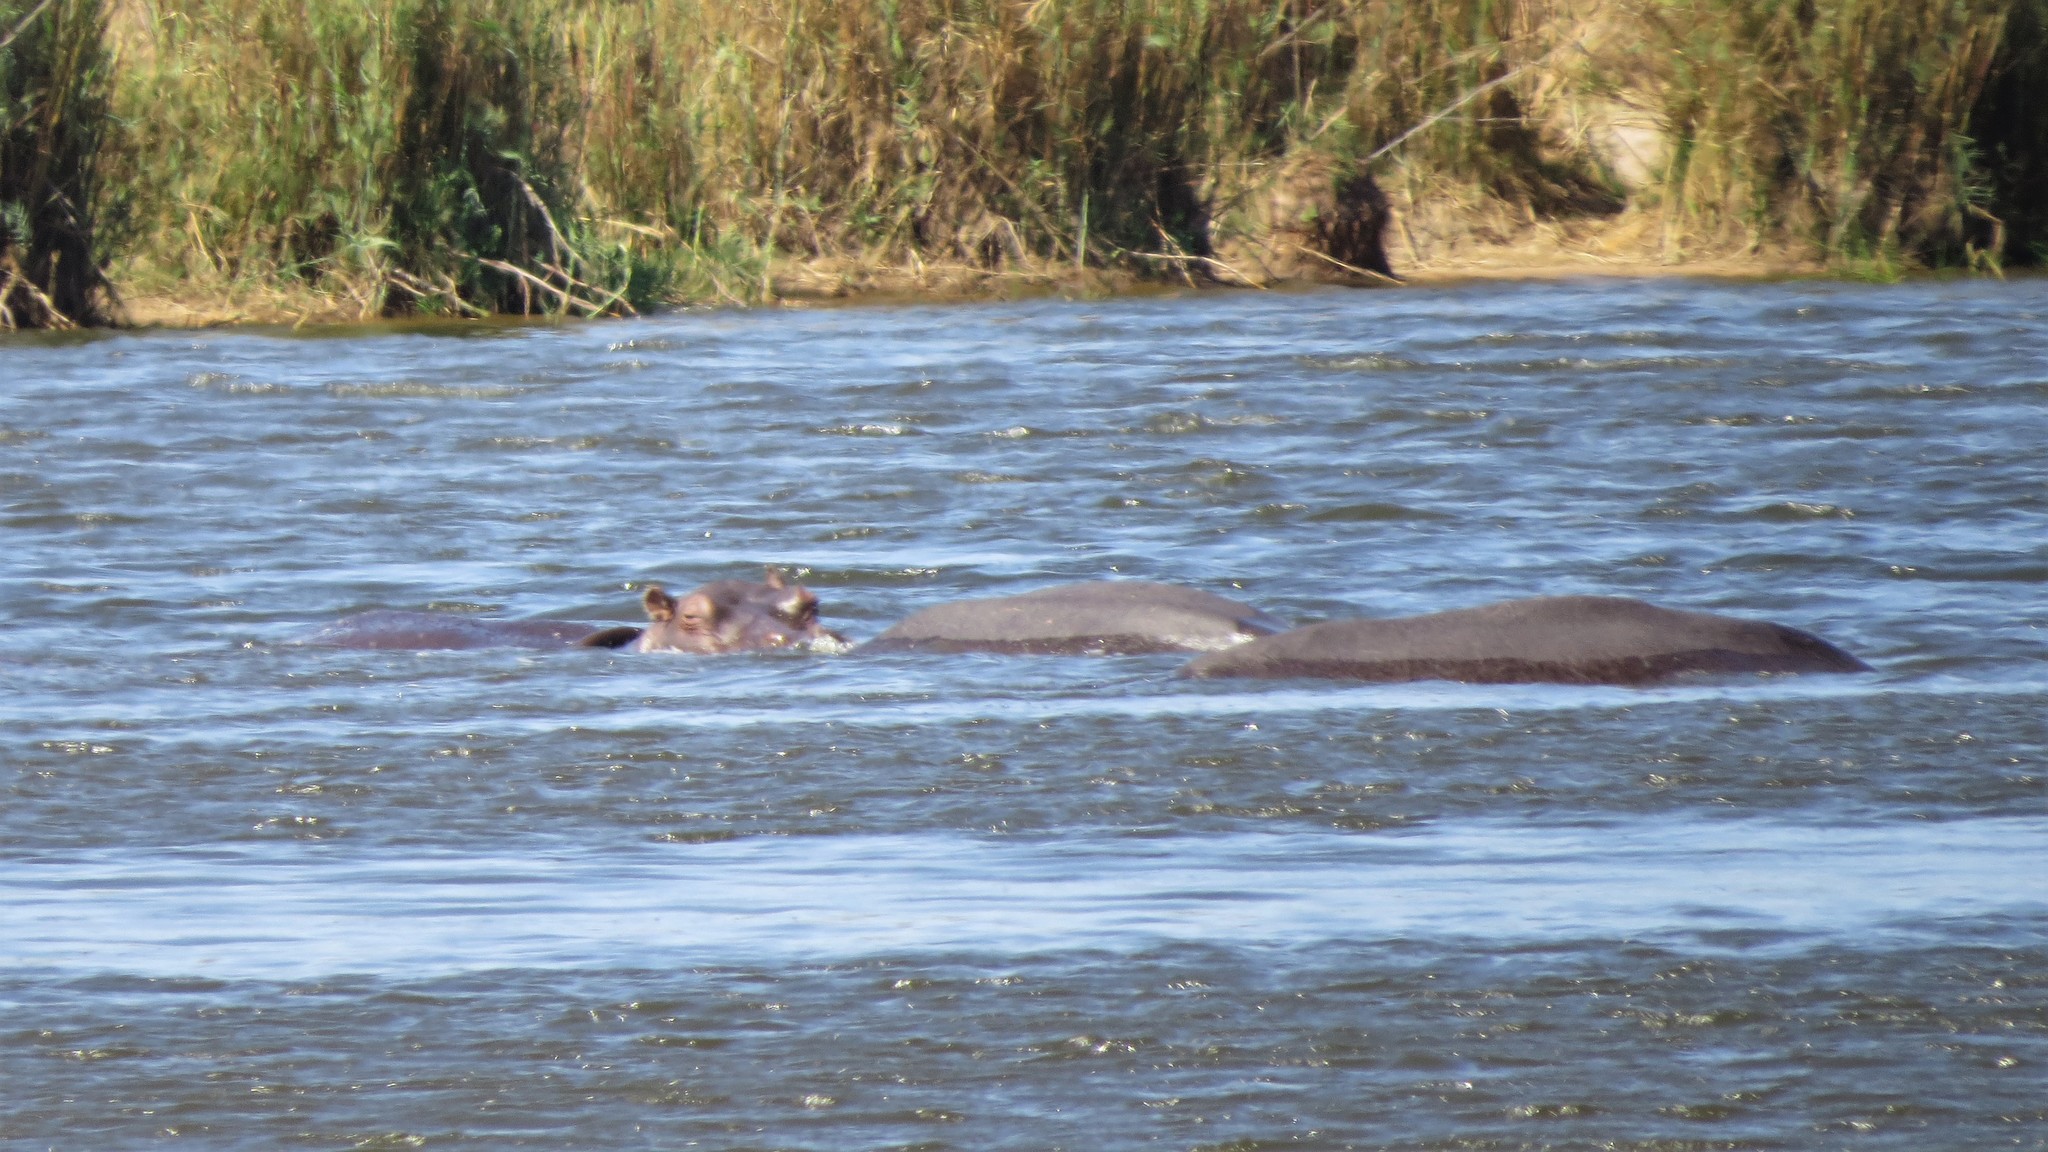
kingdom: Animalia
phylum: Chordata
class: Mammalia
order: Artiodactyla
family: Hippopotamidae
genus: Hippopotamus
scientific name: Hippopotamus amphibius
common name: Common hippopotamus
